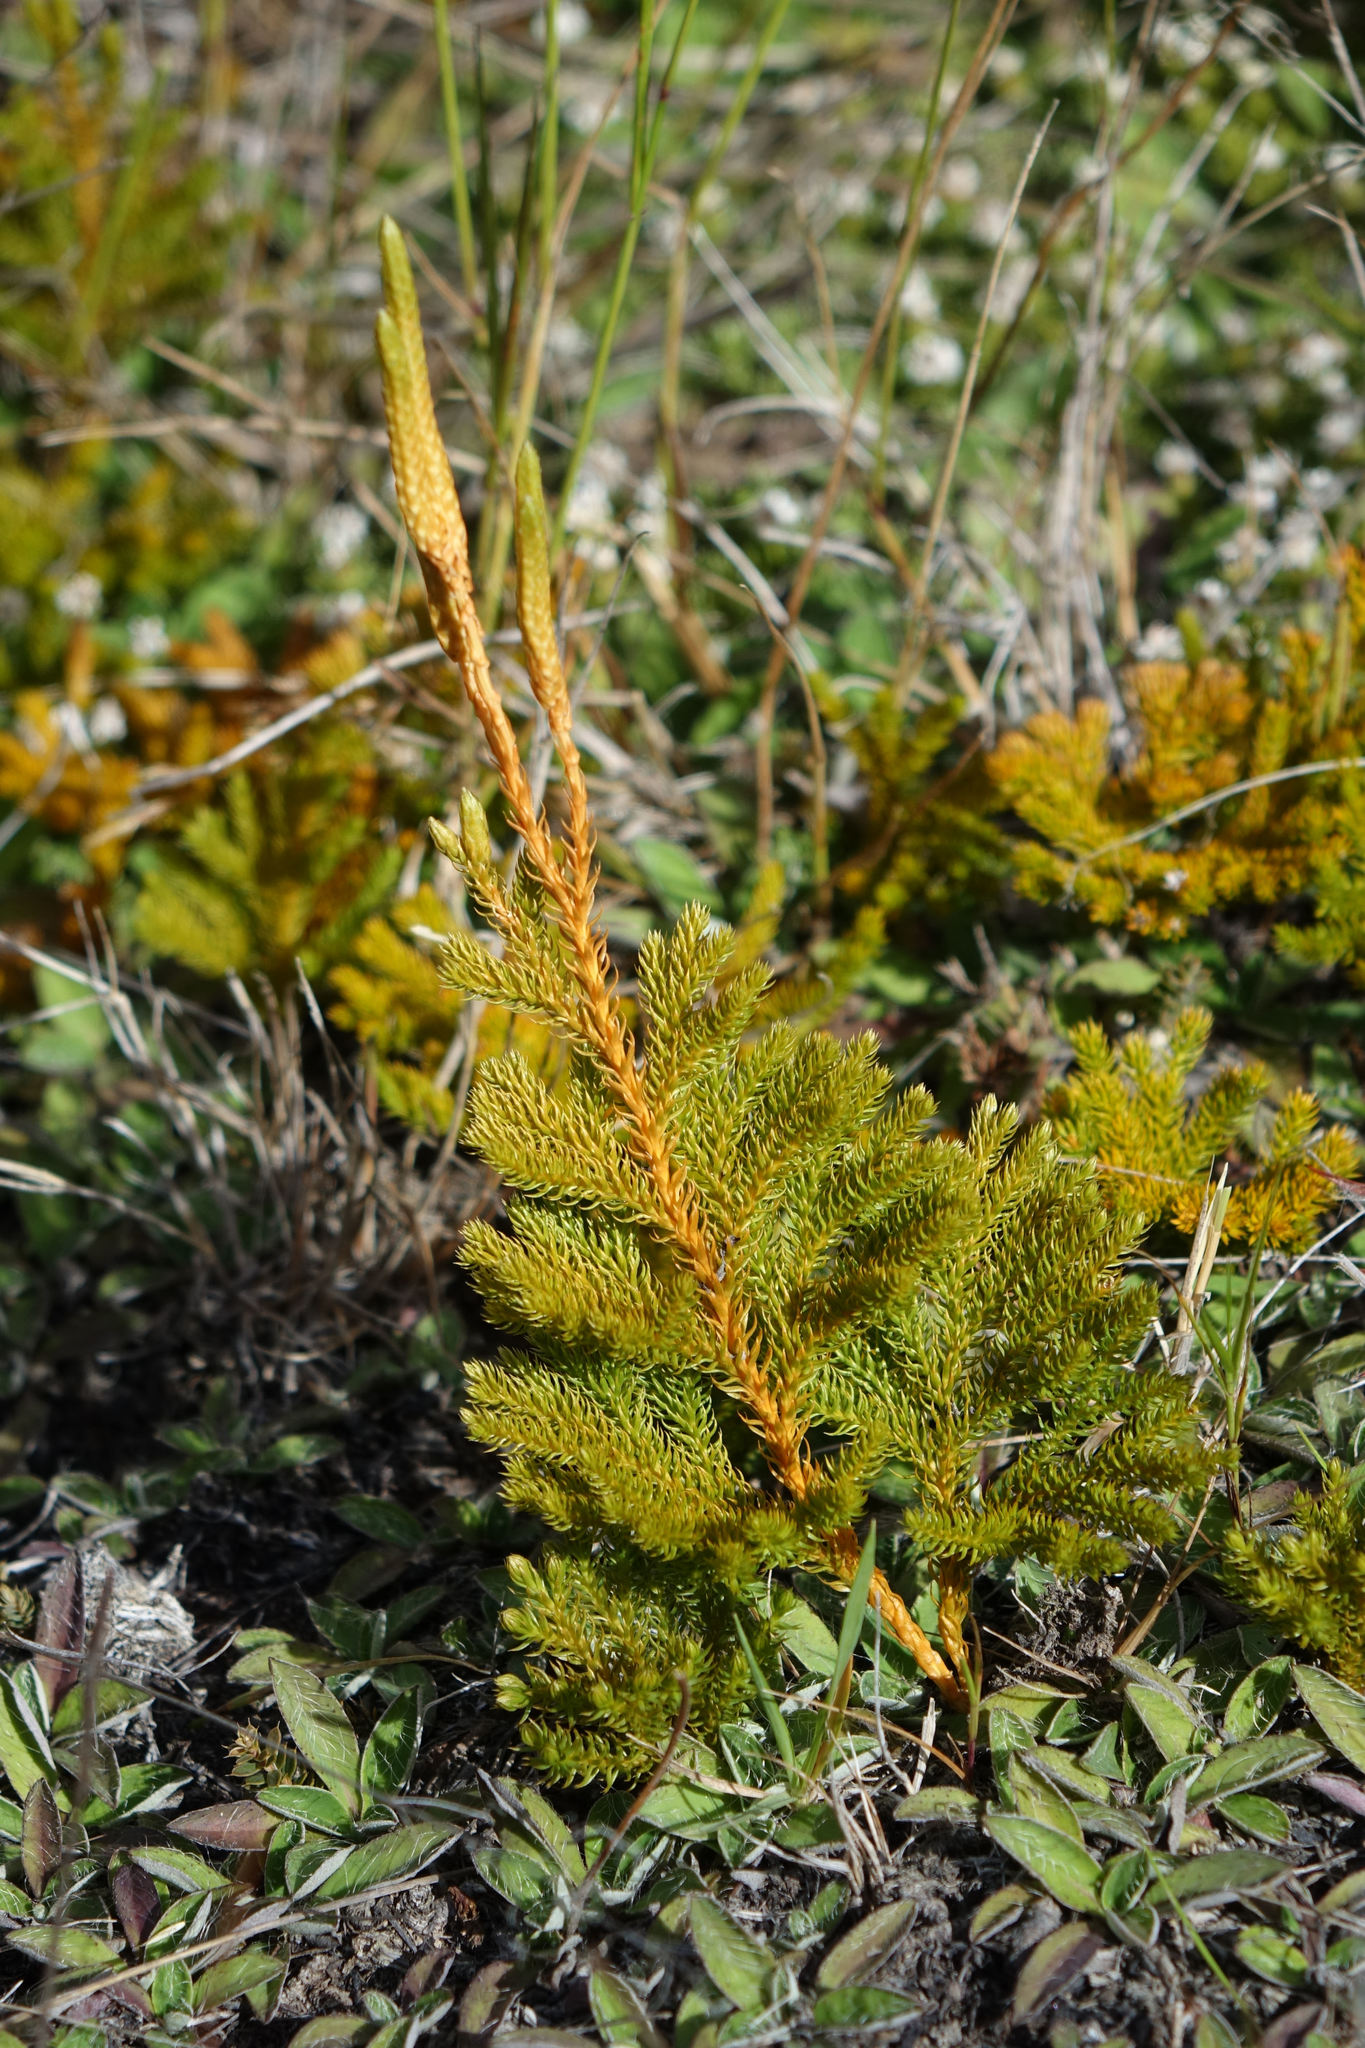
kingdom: Plantae
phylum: Tracheophyta
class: Lycopodiopsida
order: Lycopodiales
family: Lycopodiaceae
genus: Austrolycopodium
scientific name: Austrolycopodium fastigiatum
